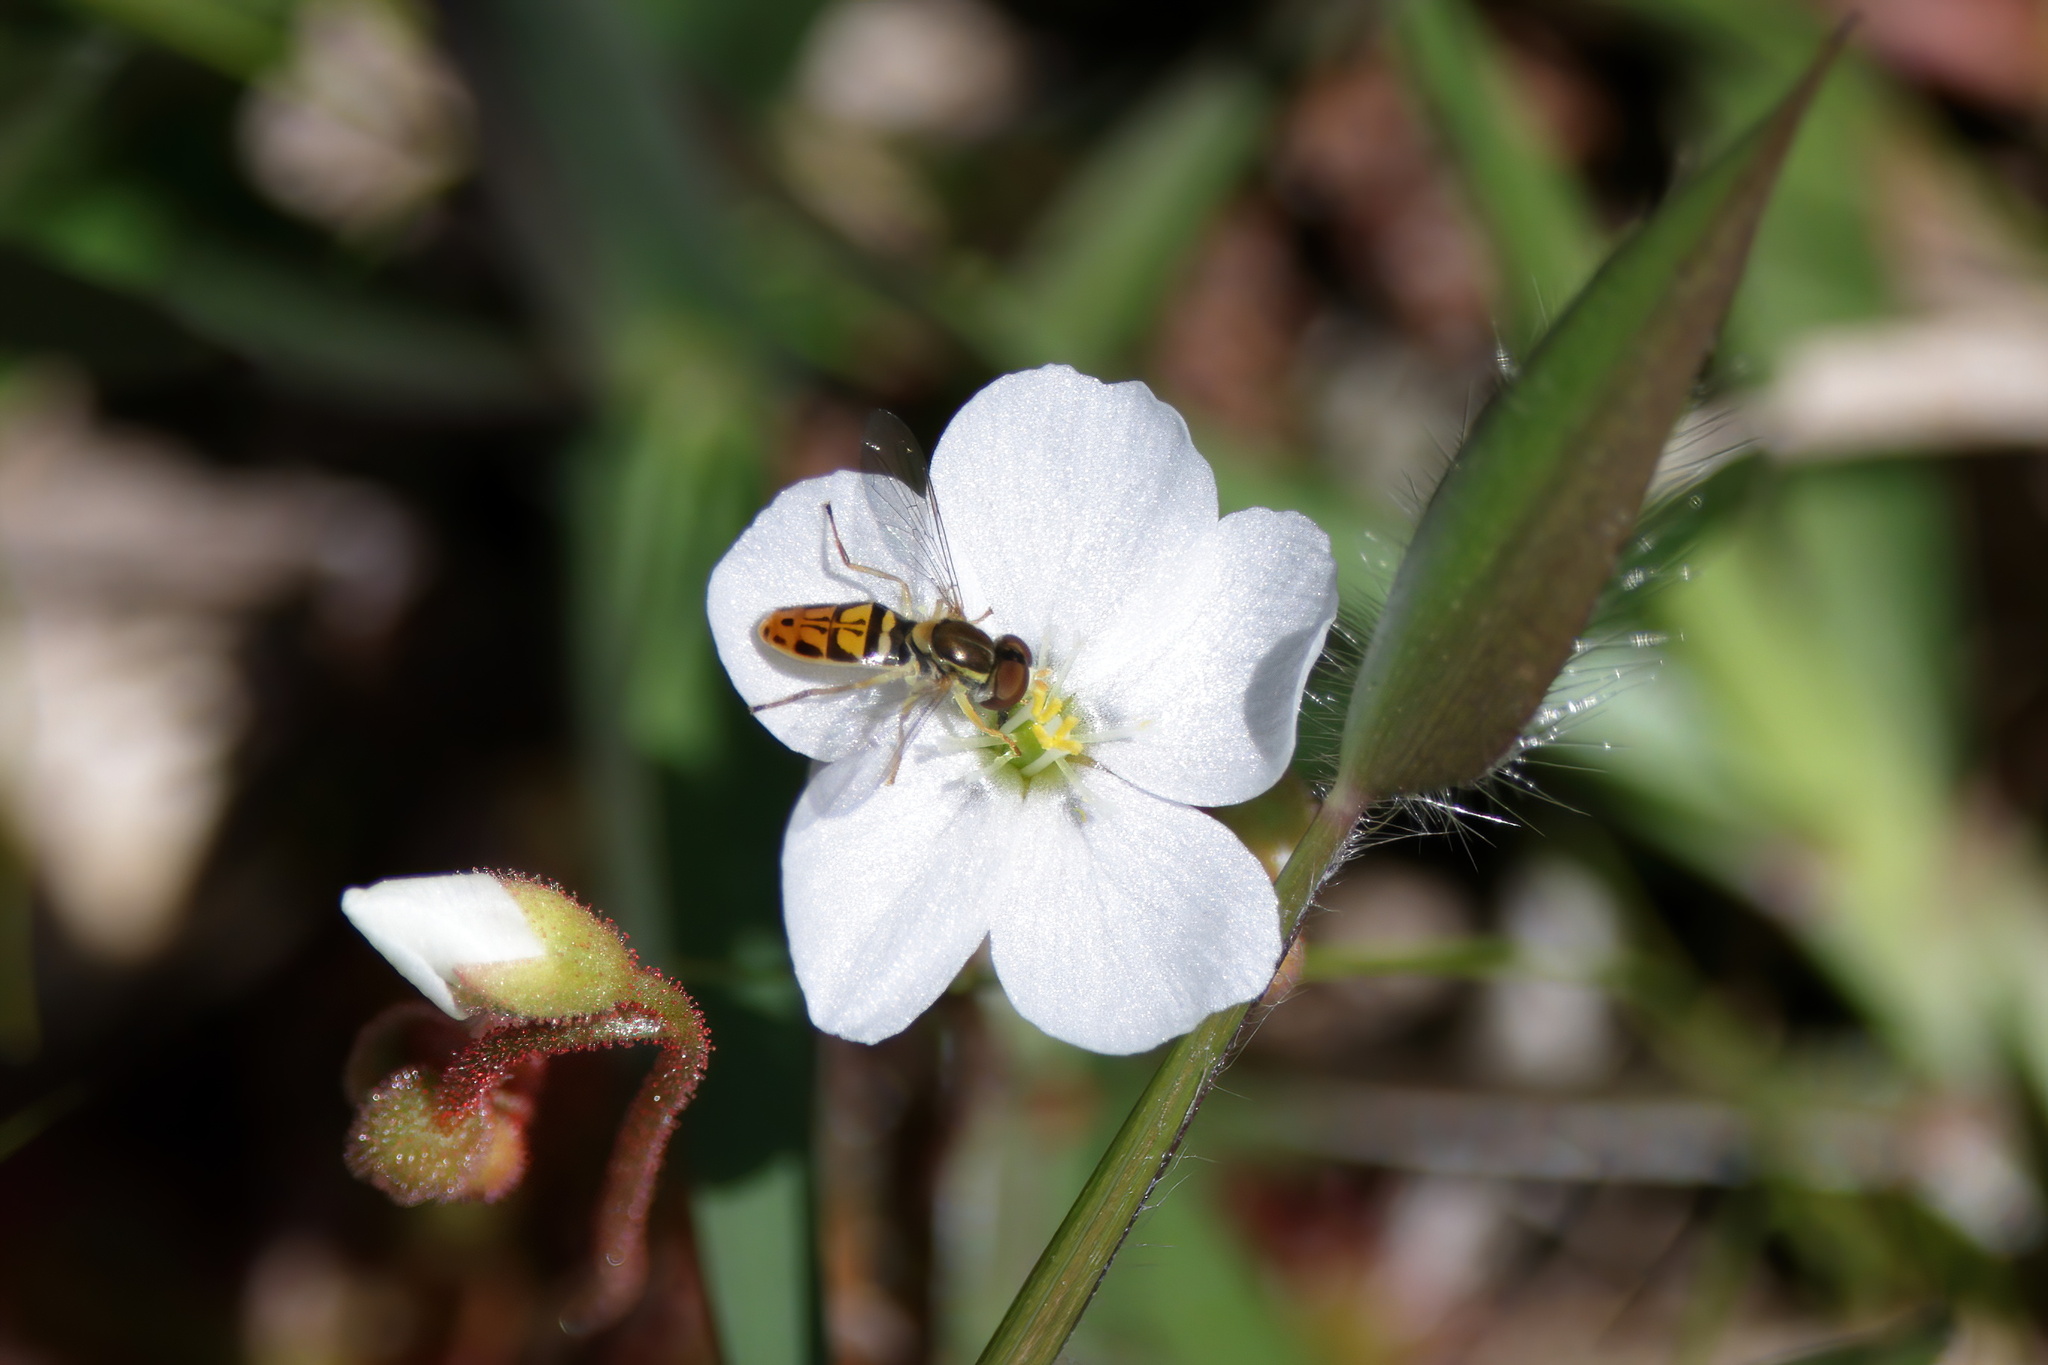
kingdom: Animalia
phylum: Arthropoda
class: Insecta
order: Diptera
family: Syrphidae
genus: Toxomerus
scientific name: Toxomerus marginatus
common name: Syrphid fly
